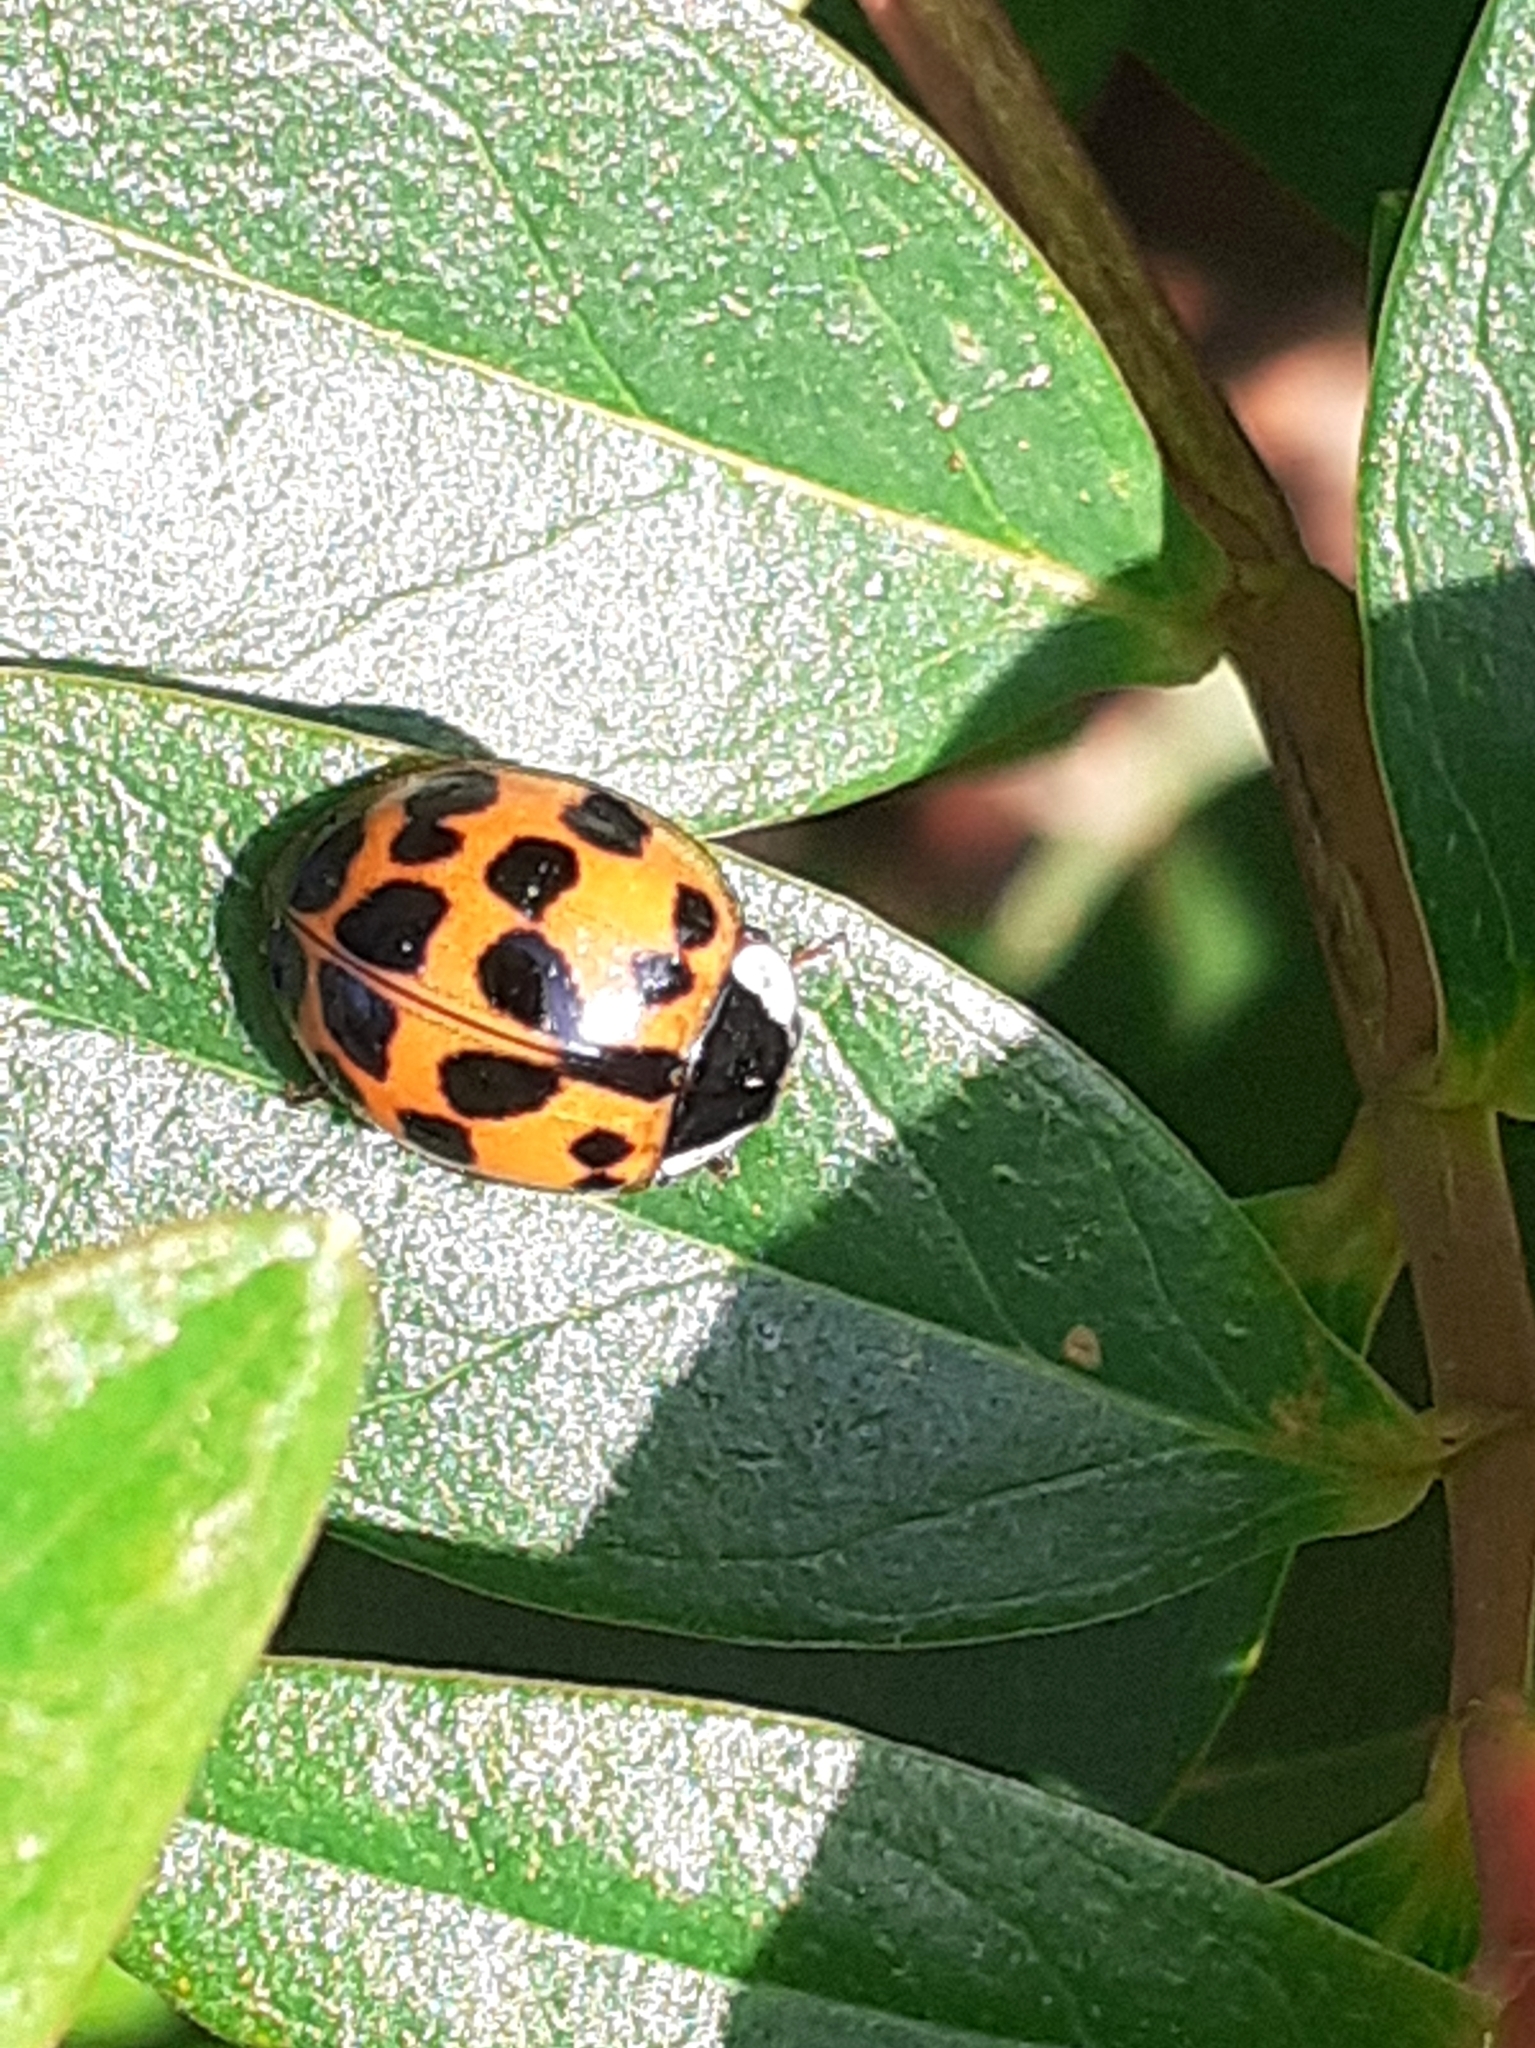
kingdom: Animalia
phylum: Arthropoda
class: Insecta
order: Coleoptera
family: Coccinellidae
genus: Harmonia
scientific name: Harmonia axyridis
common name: Harlequin ladybird
